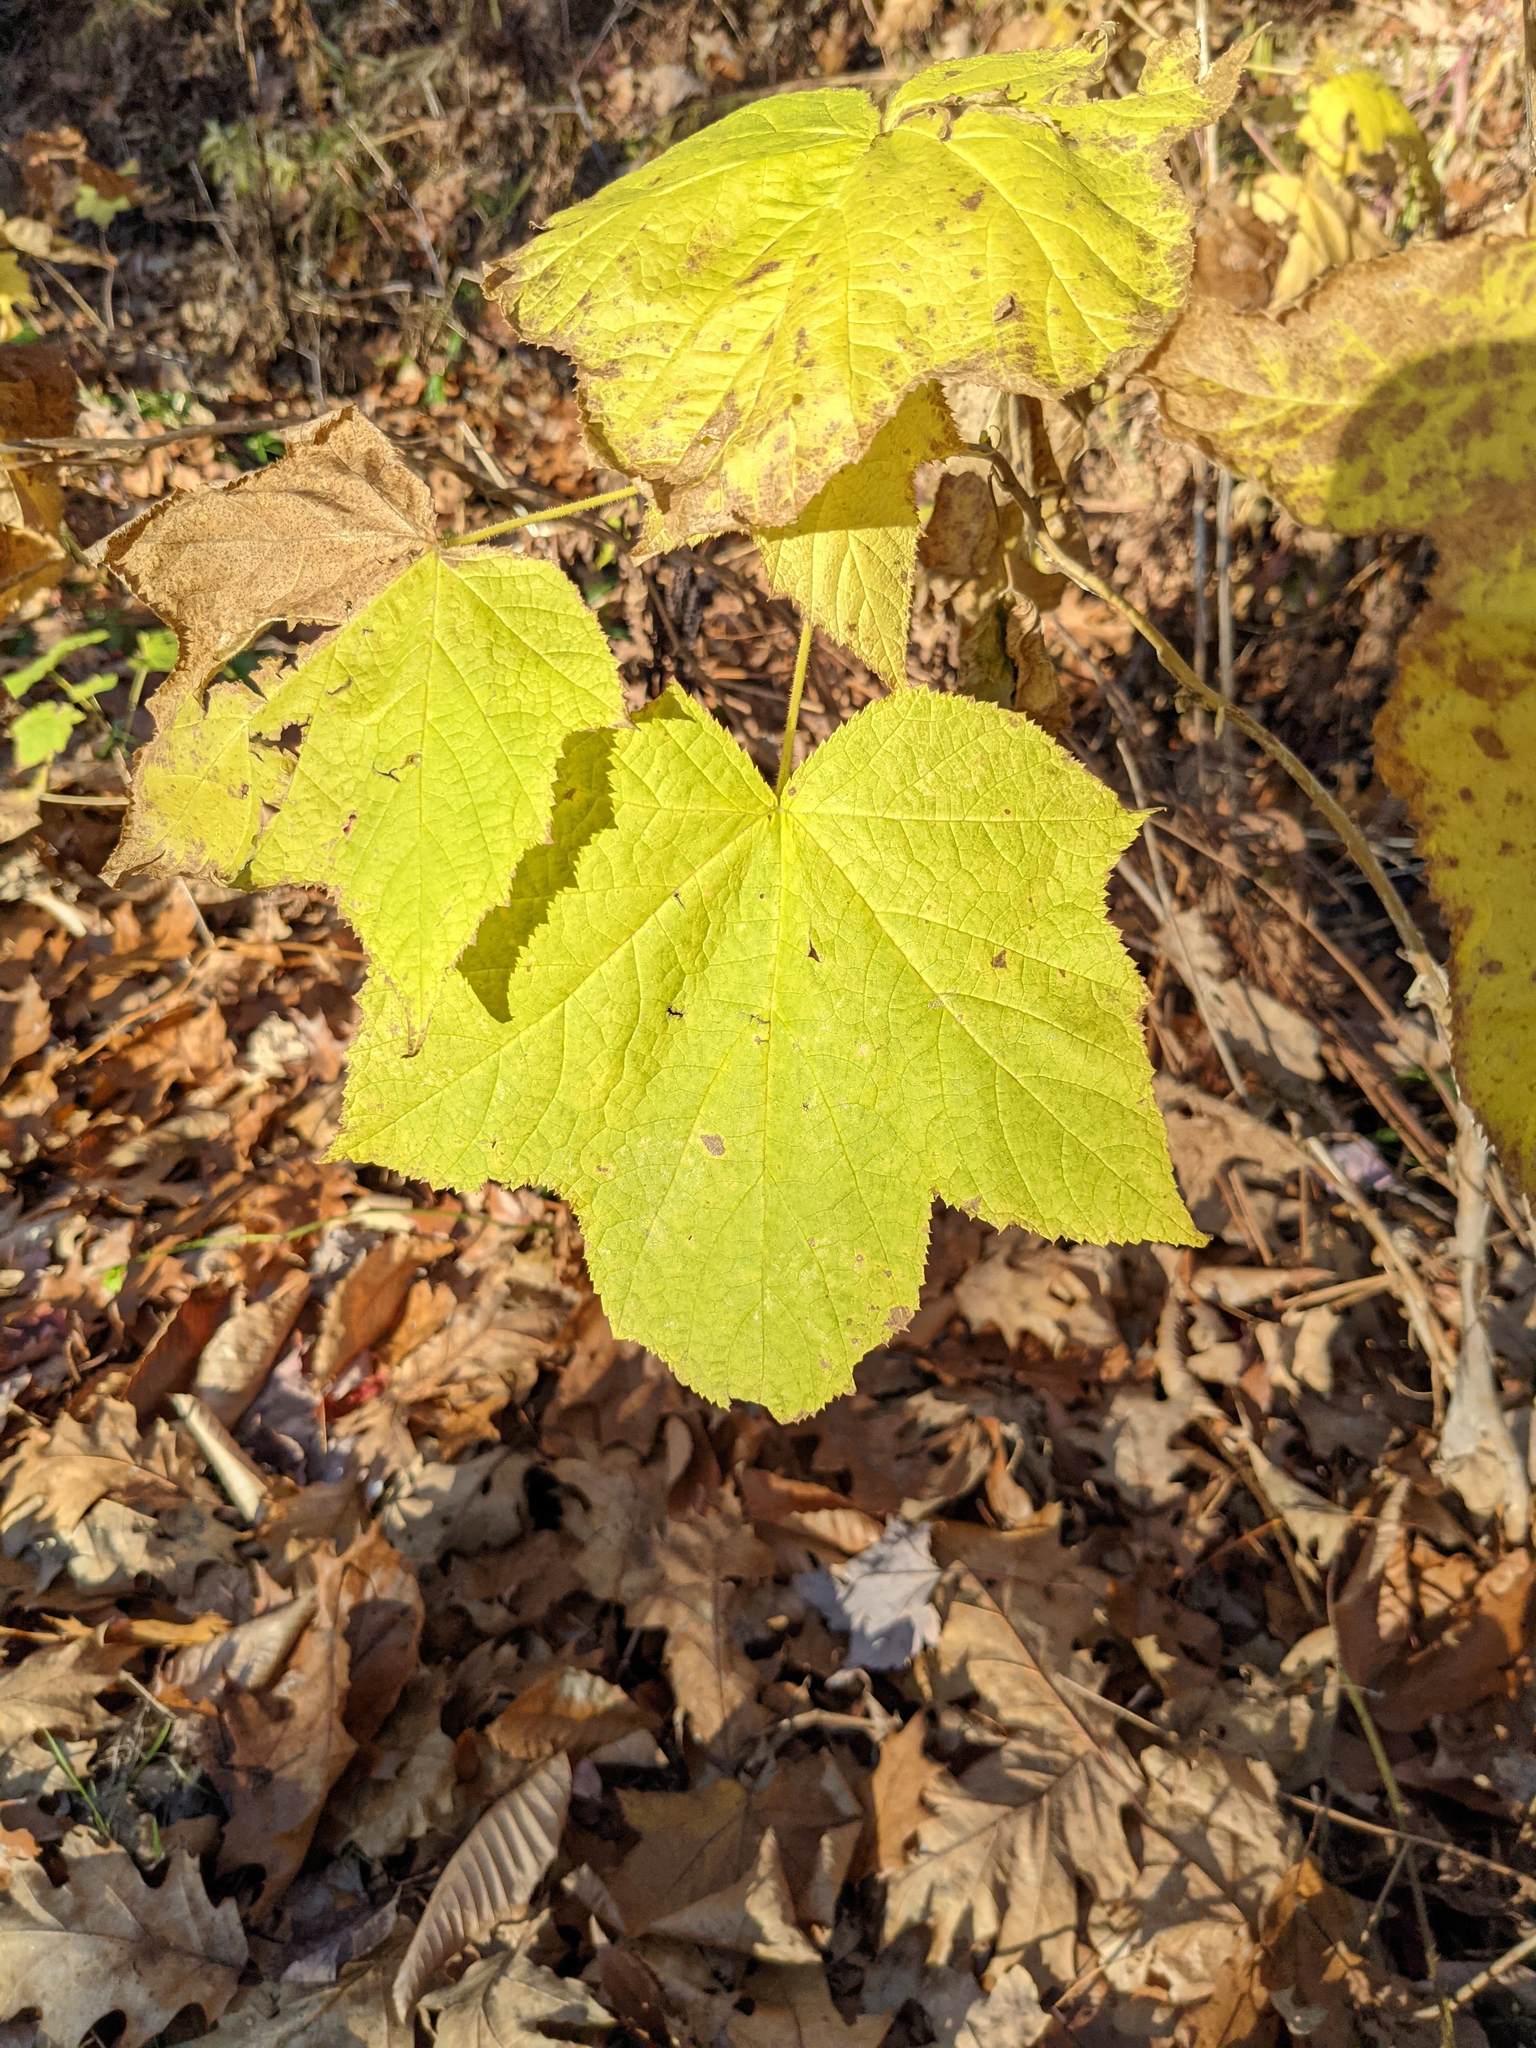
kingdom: Plantae
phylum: Tracheophyta
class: Magnoliopsida
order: Rosales
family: Rosaceae
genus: Rubus
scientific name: Rubus odoratus
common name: Purple-flowered raspberry
